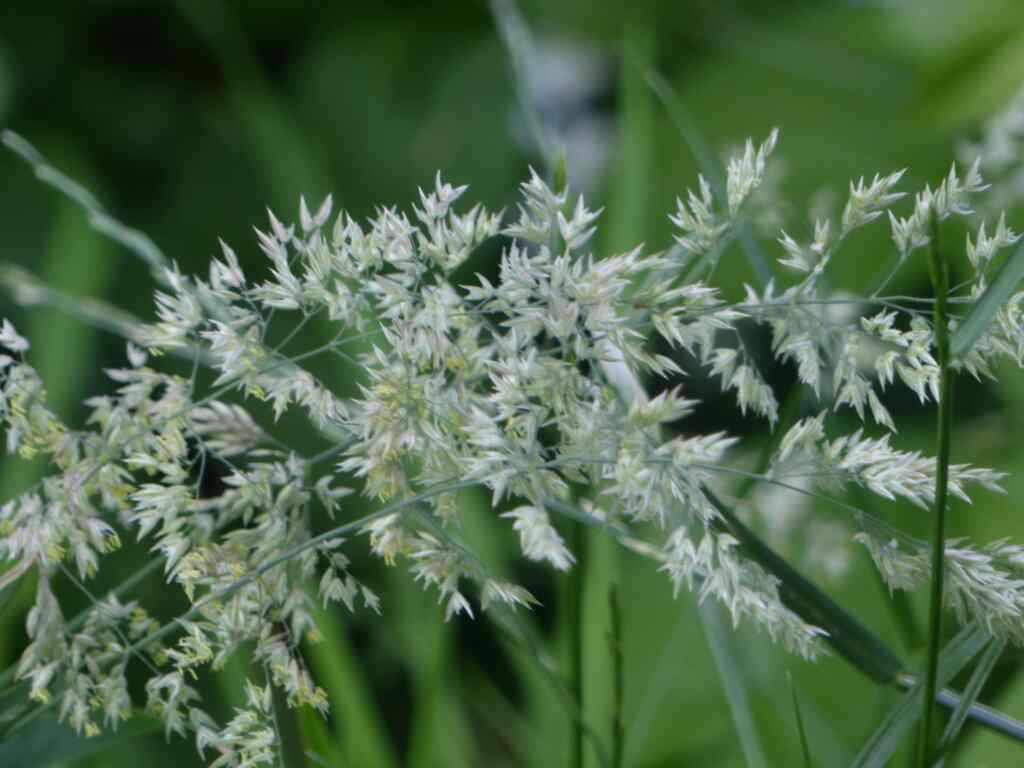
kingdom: Plantae
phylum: Tracheophyta
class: Liliopsida
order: Poales
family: Poaceae
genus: Holcus
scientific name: Holcus lanatus
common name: Yorkshire-fog
